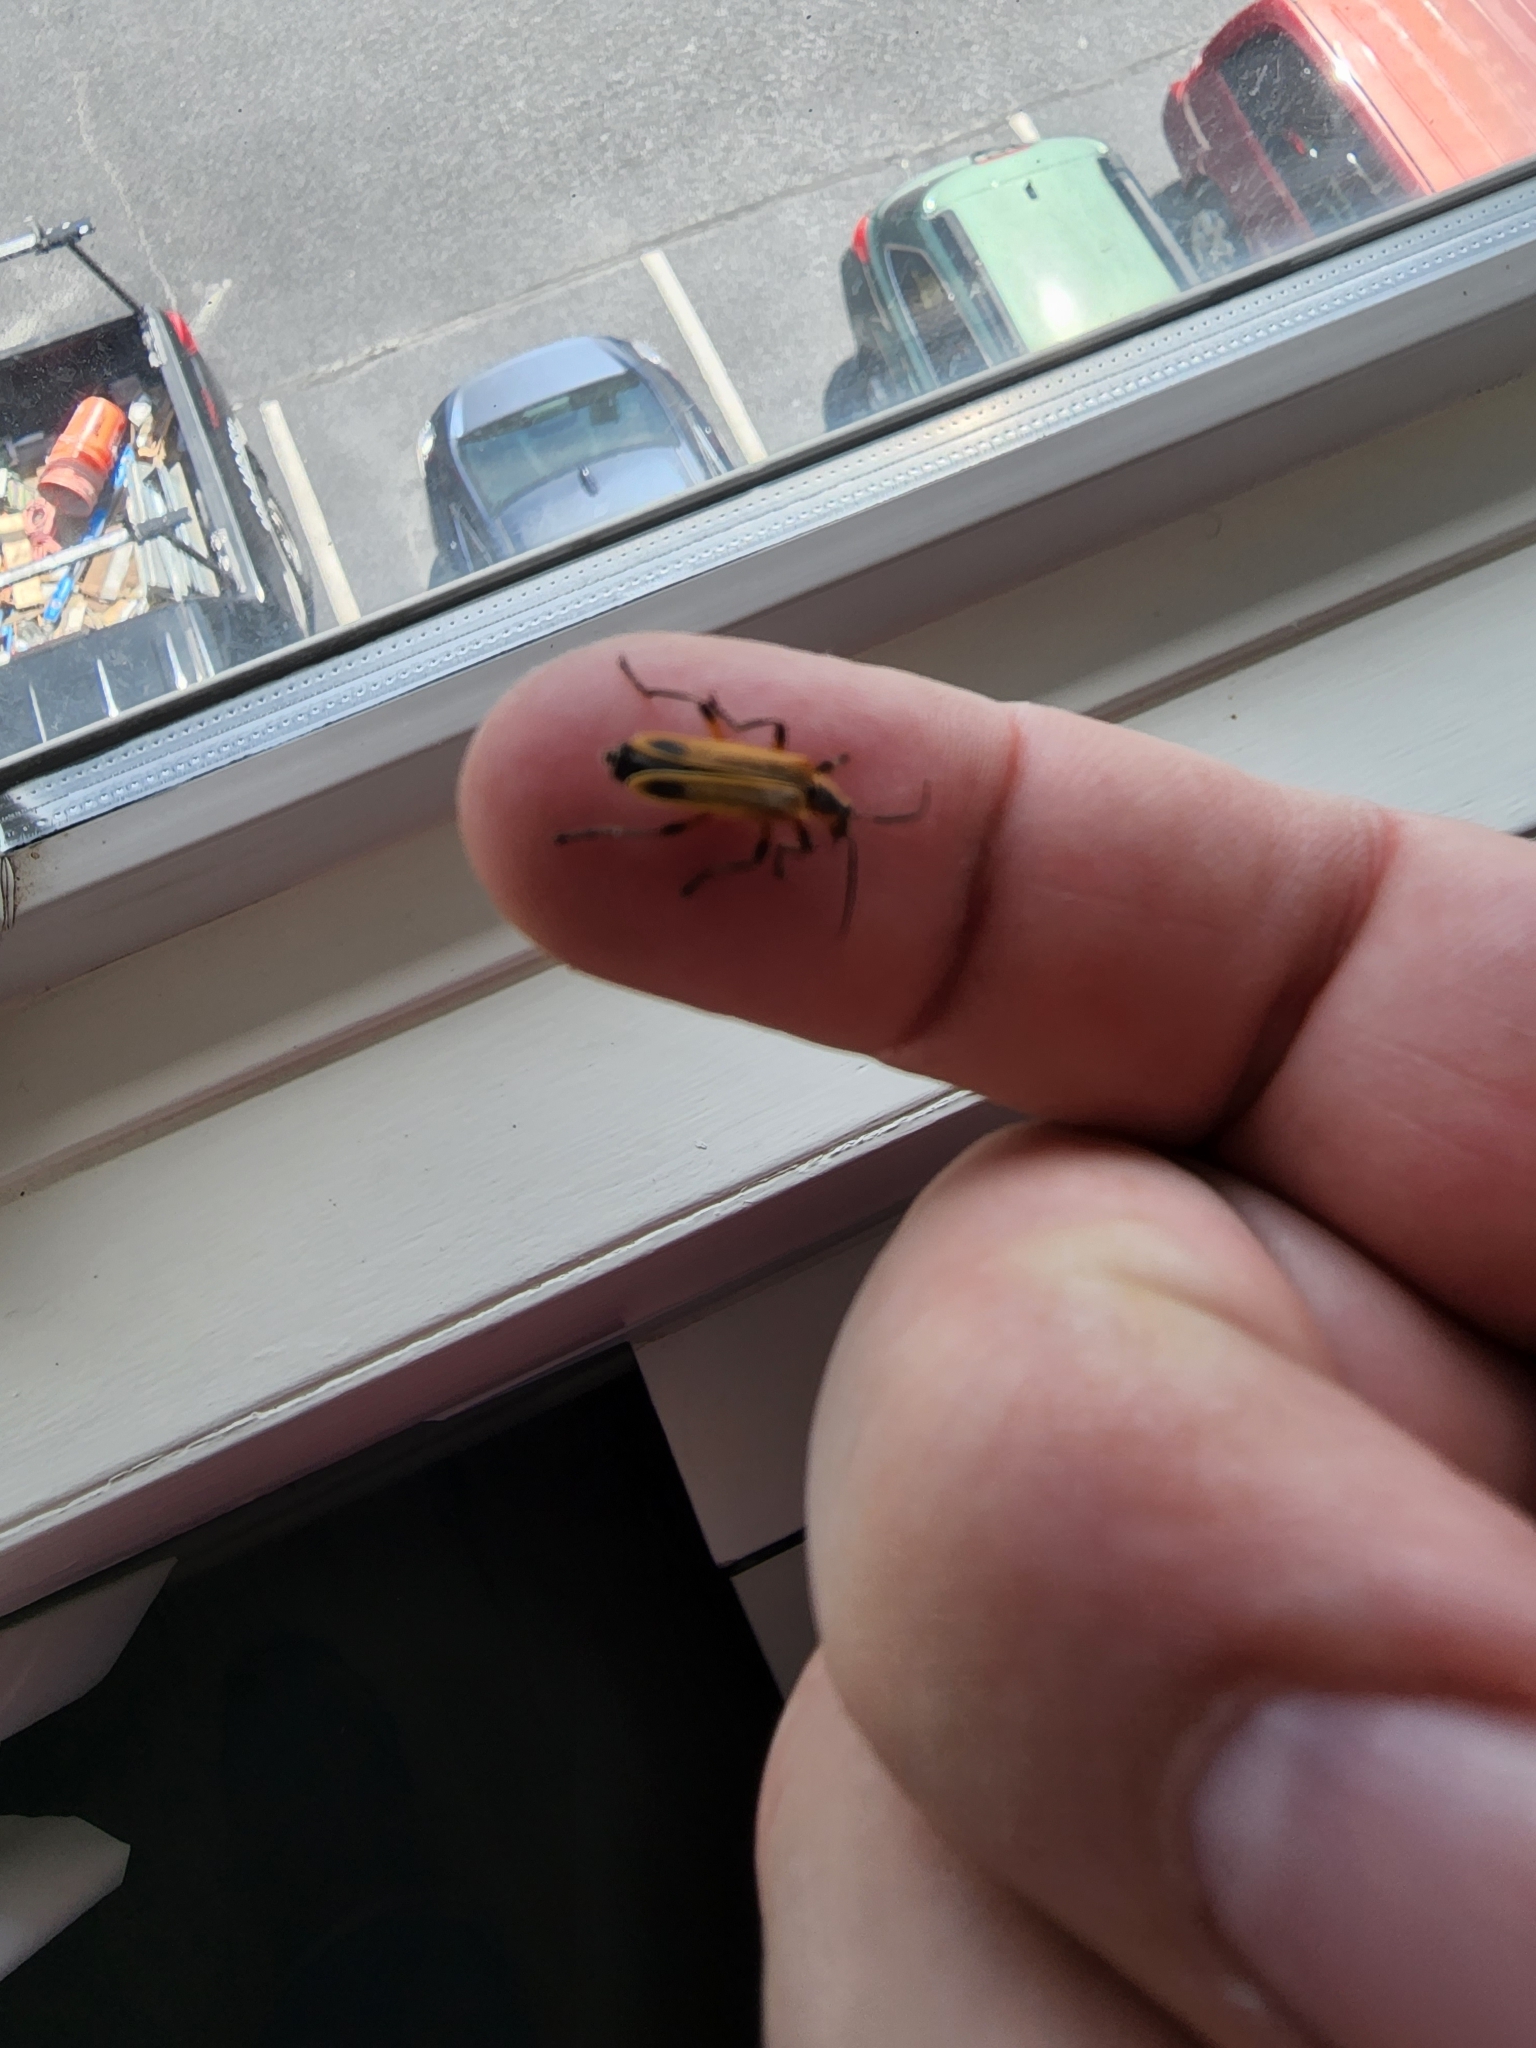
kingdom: Animalia
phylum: Arthropoda
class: Insecta
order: Coleoptera
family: Cantharidae
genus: Chauliognathus
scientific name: Chauliognathus marginatus
